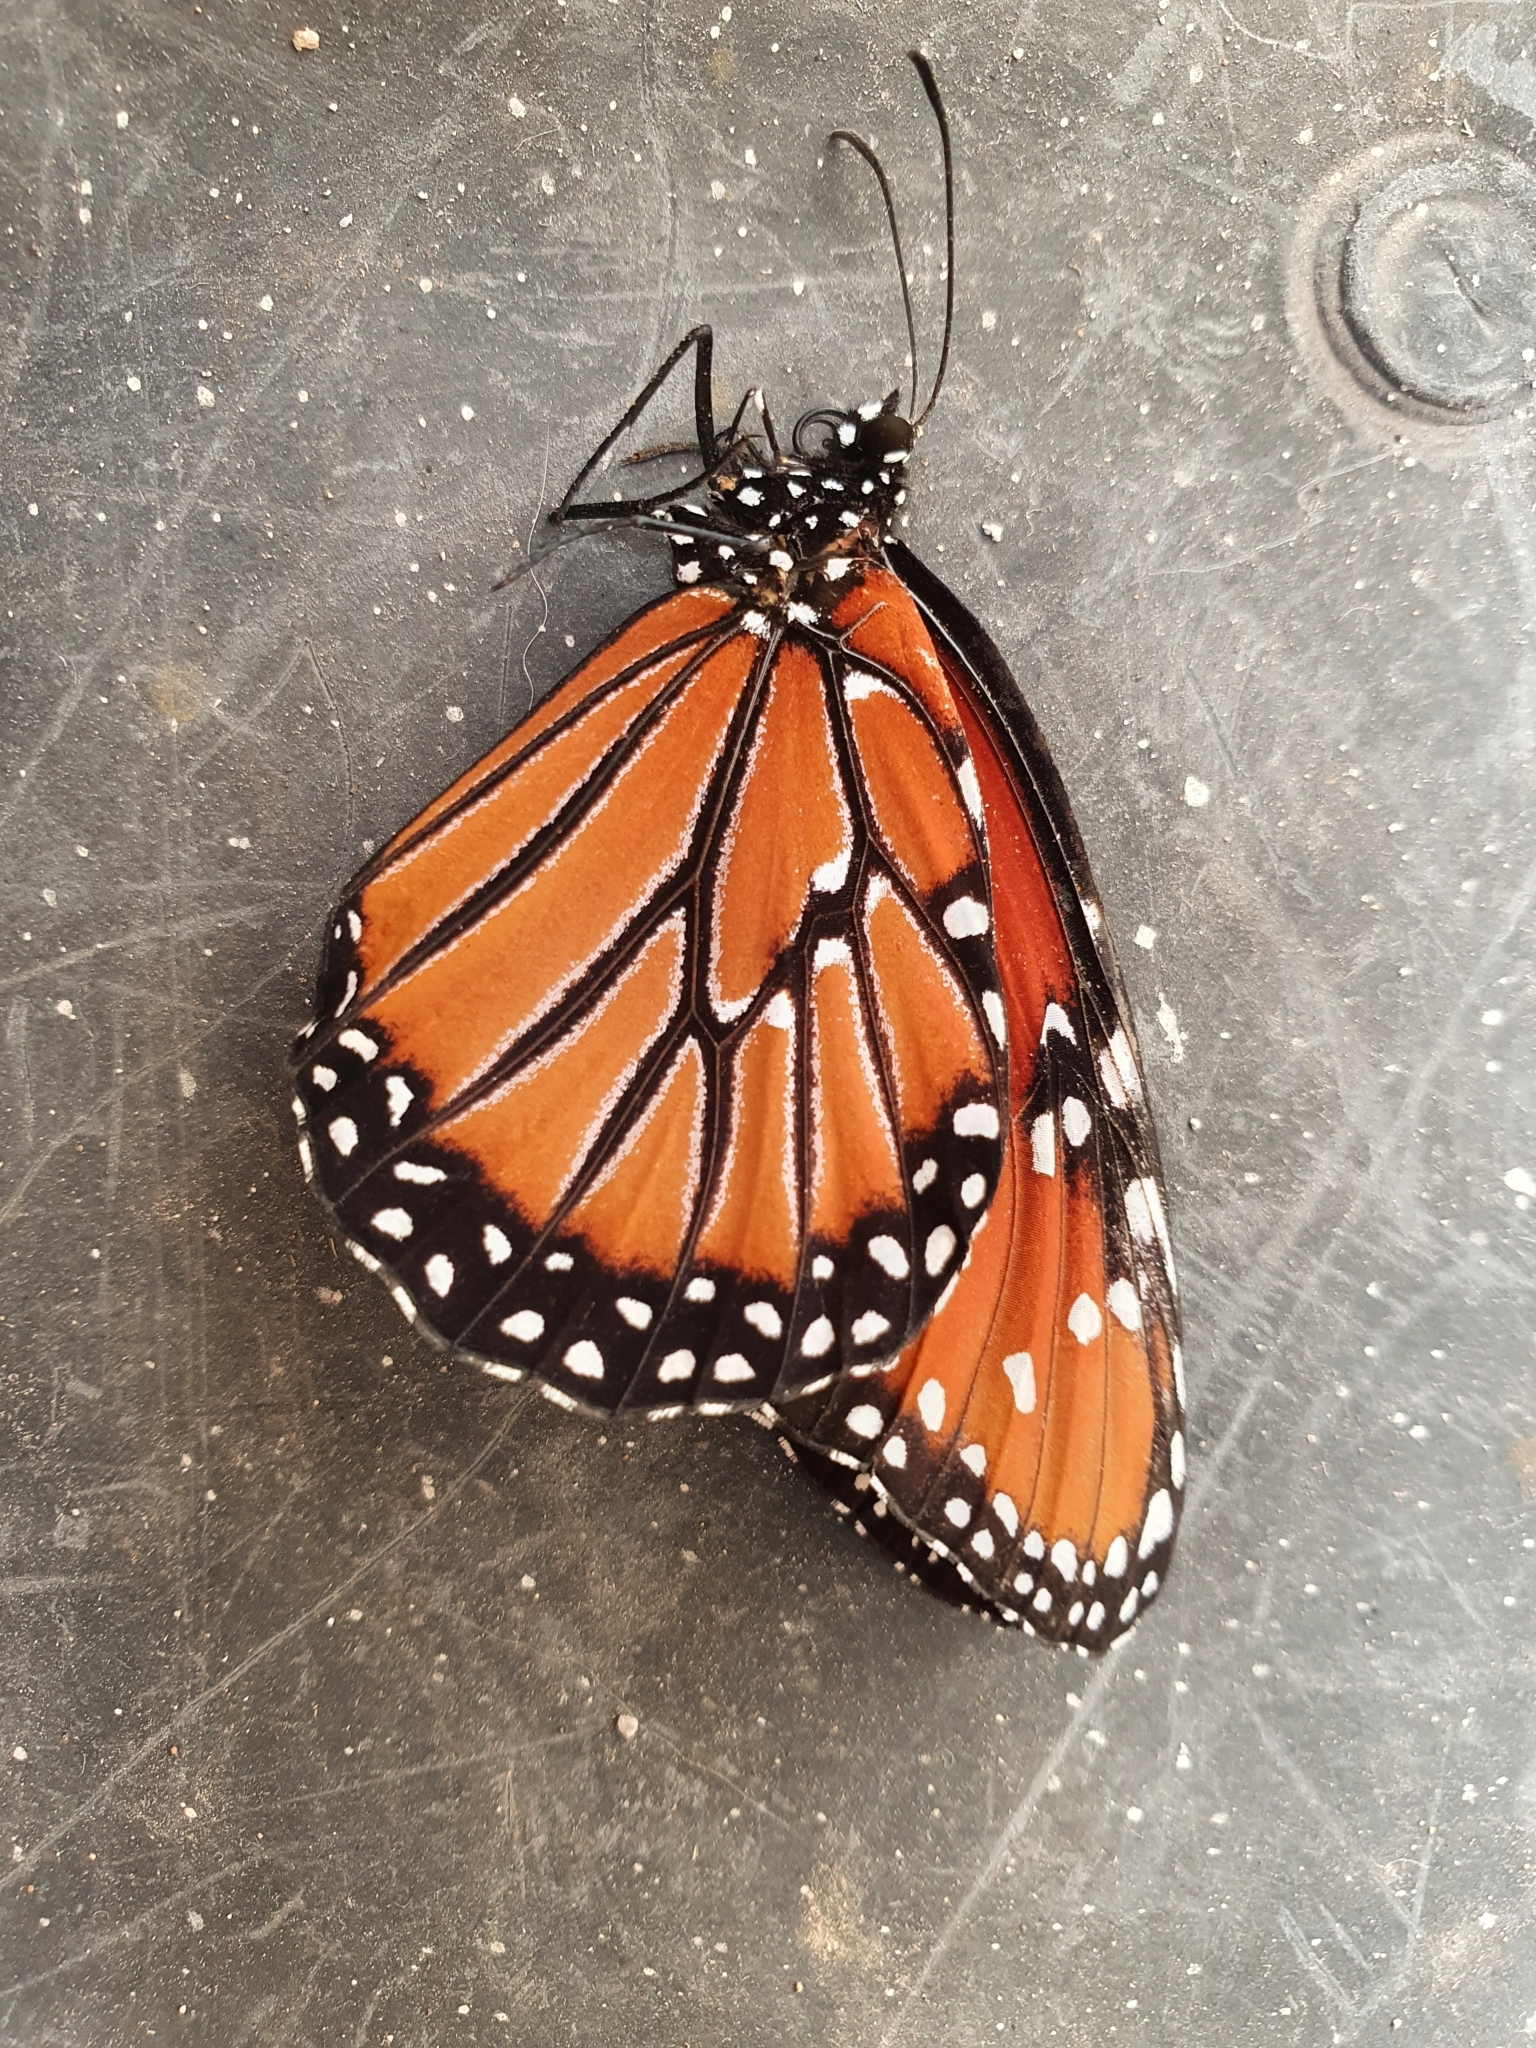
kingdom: Animalia
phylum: Arthropoda
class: Insecta
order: Lepidoptera
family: Nymphalidae
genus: Danaus
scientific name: Danaus gilippus
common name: Queen
